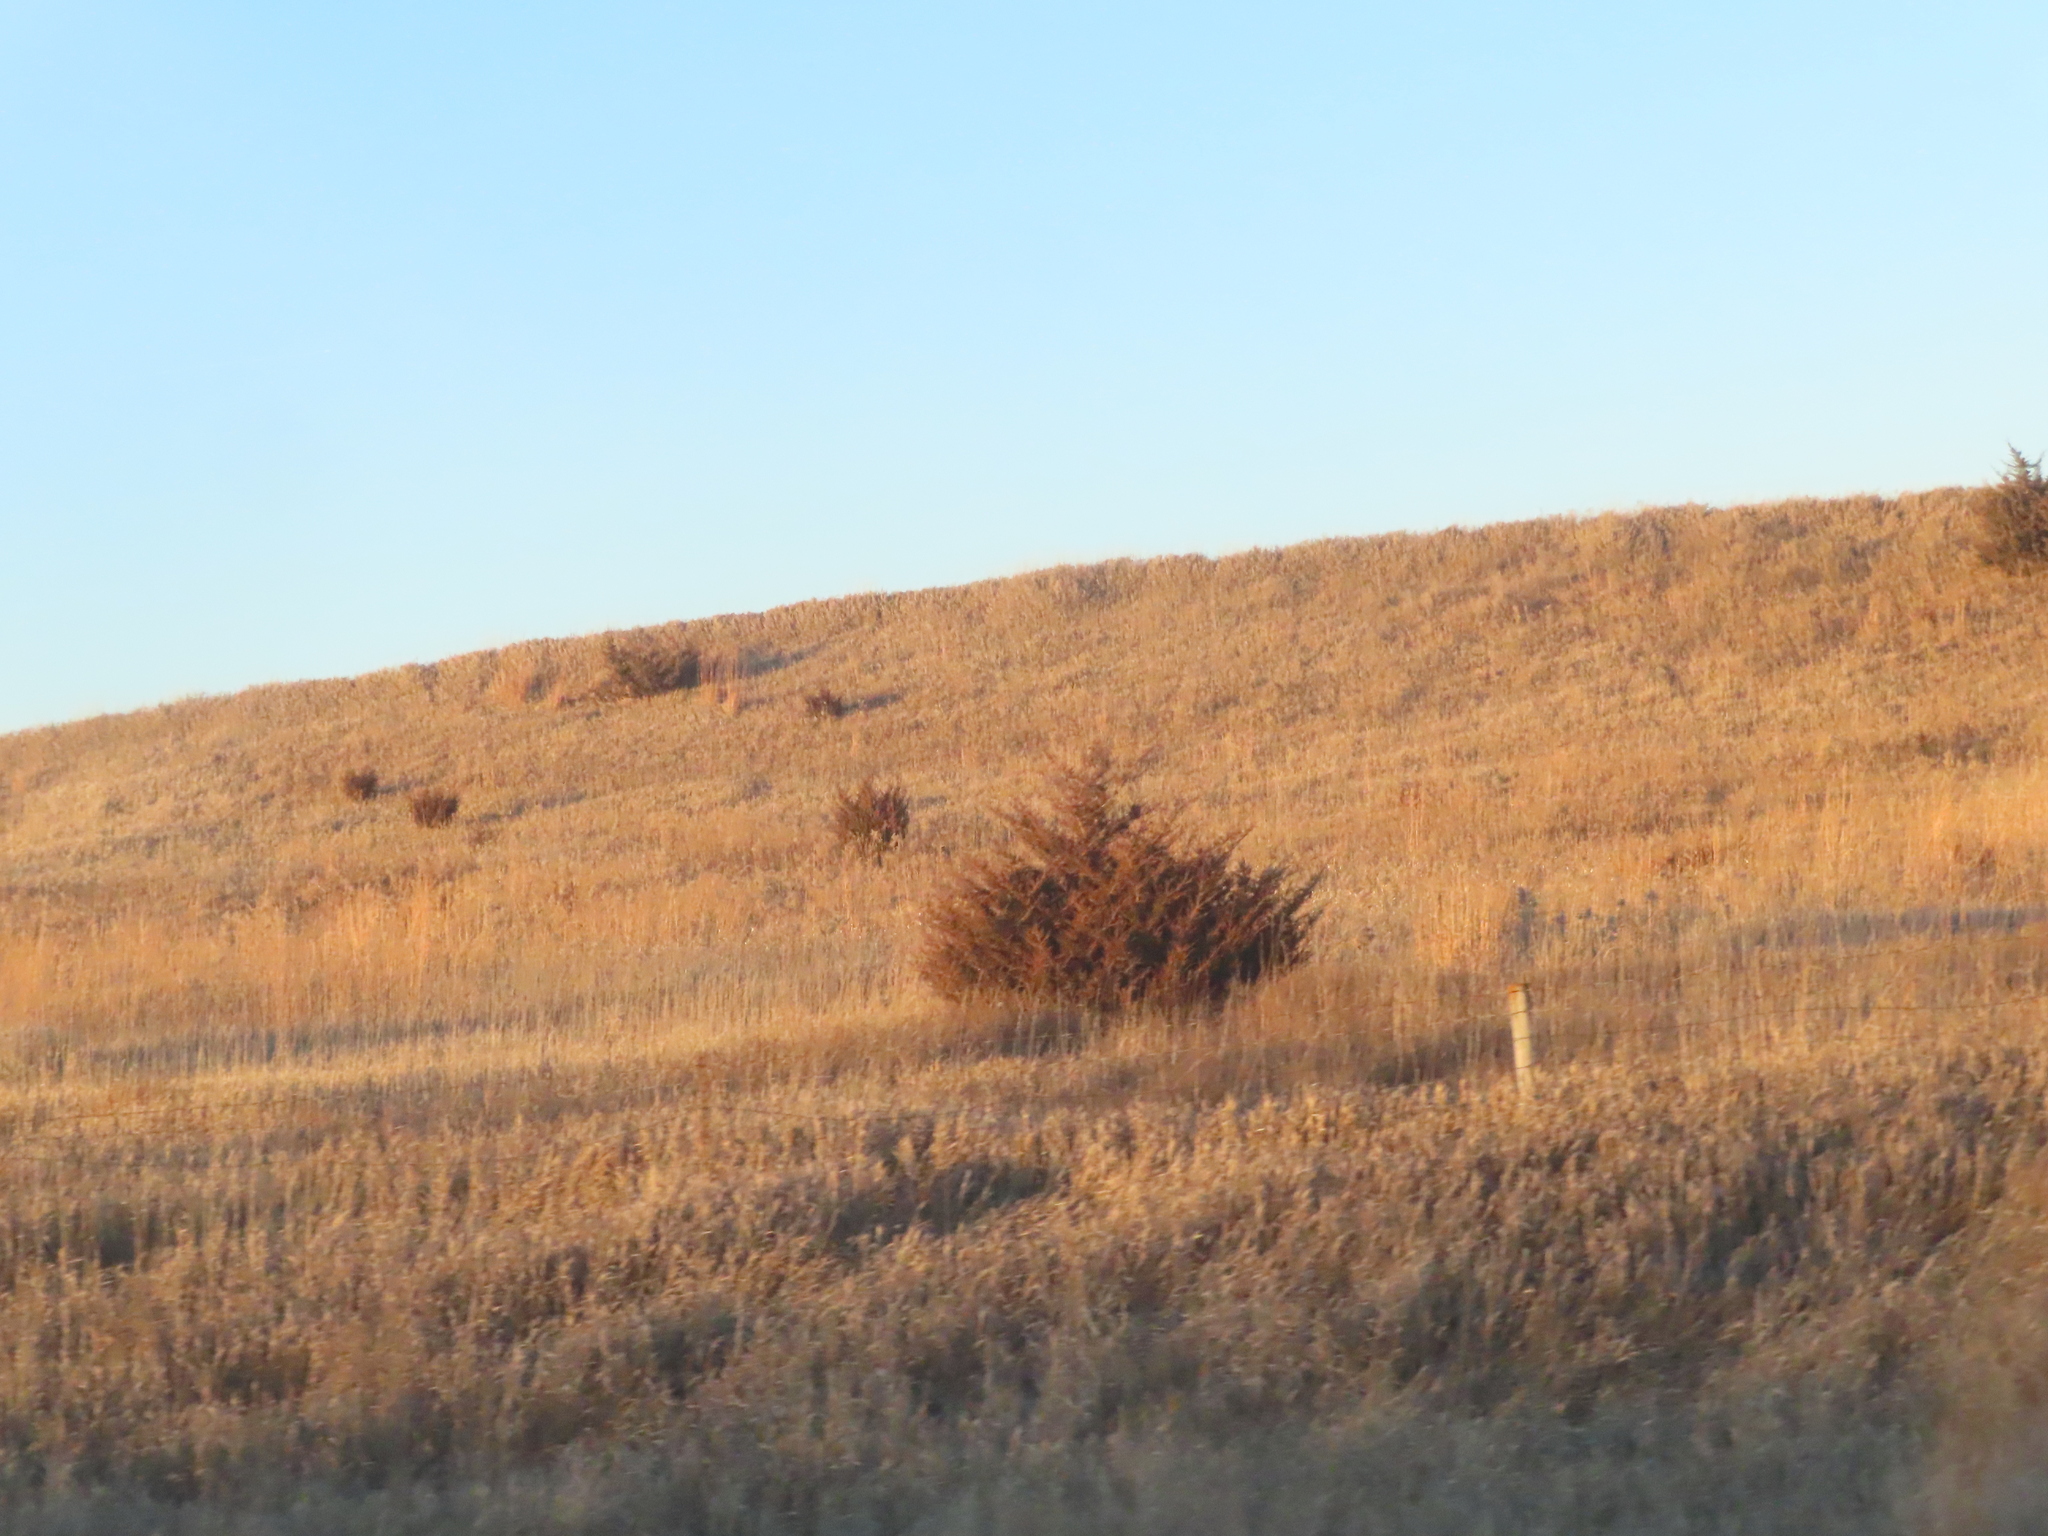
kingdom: Plantae
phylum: Tracheophyta
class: Pinopsida
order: Pinales
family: Cupressaceae
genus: Juniperus
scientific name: Juniperus virginiana
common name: Red juniper
